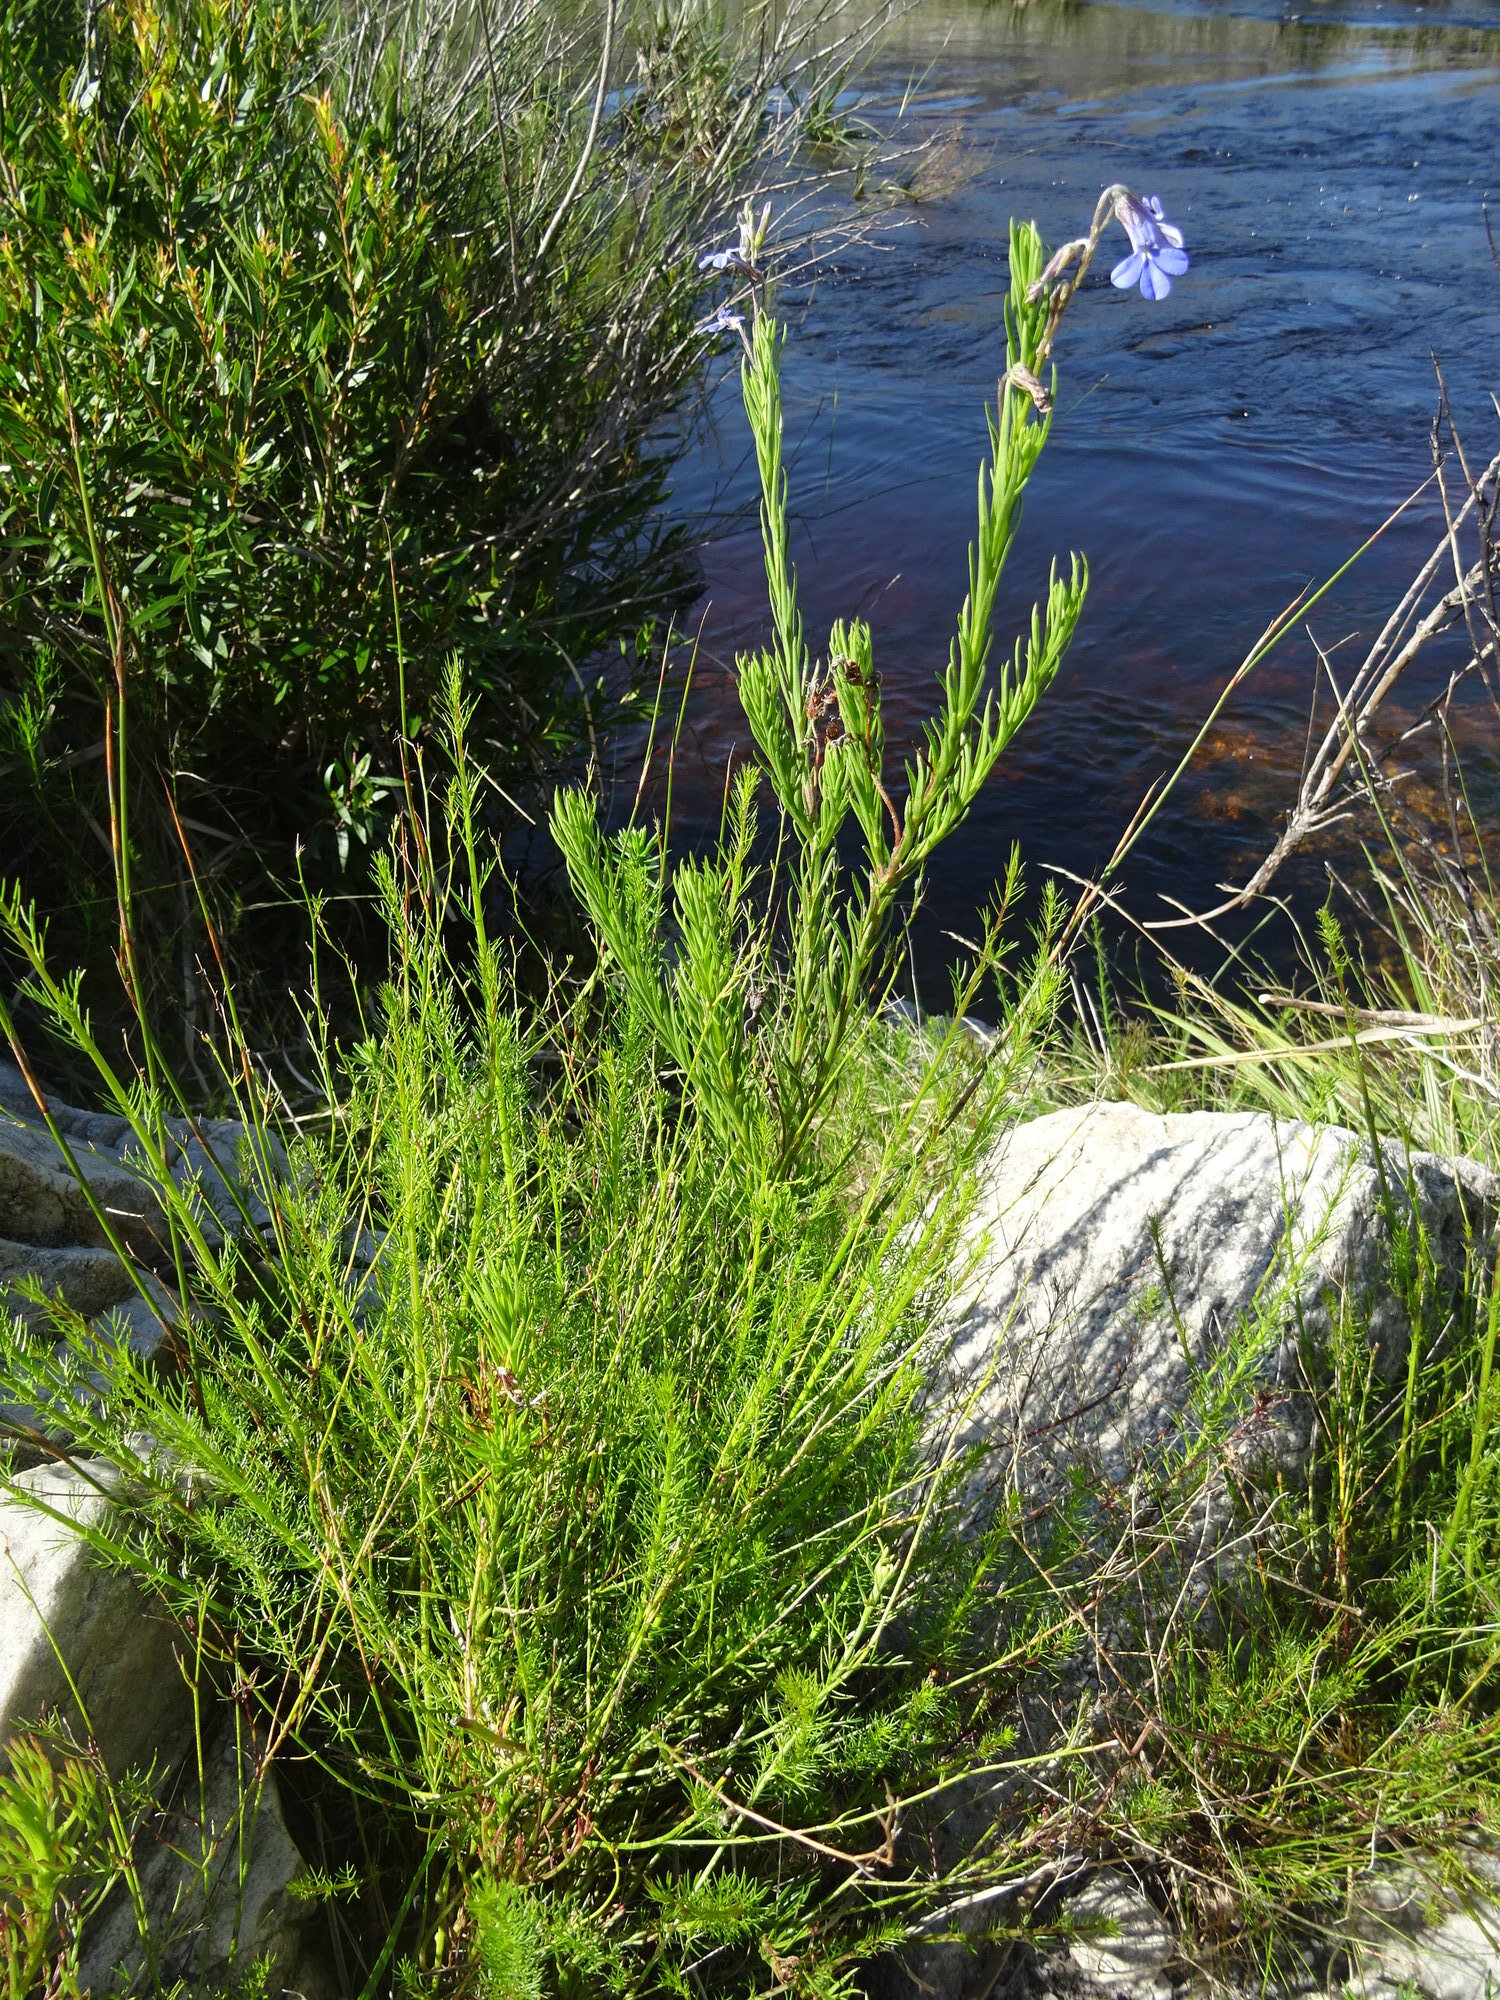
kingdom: Plantae
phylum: Tracheophyta
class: Magnoliopsida
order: Asterales
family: Campanulaceae
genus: Lobelia
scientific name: Lobelia pinifolia
